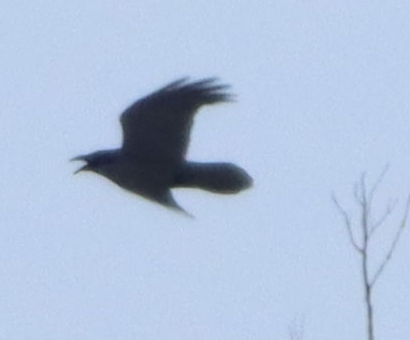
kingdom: Animalia
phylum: Chordata
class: Aves
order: Passeriformes
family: Corvidae
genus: Corvus
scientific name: Corvus corax
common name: Common raven
